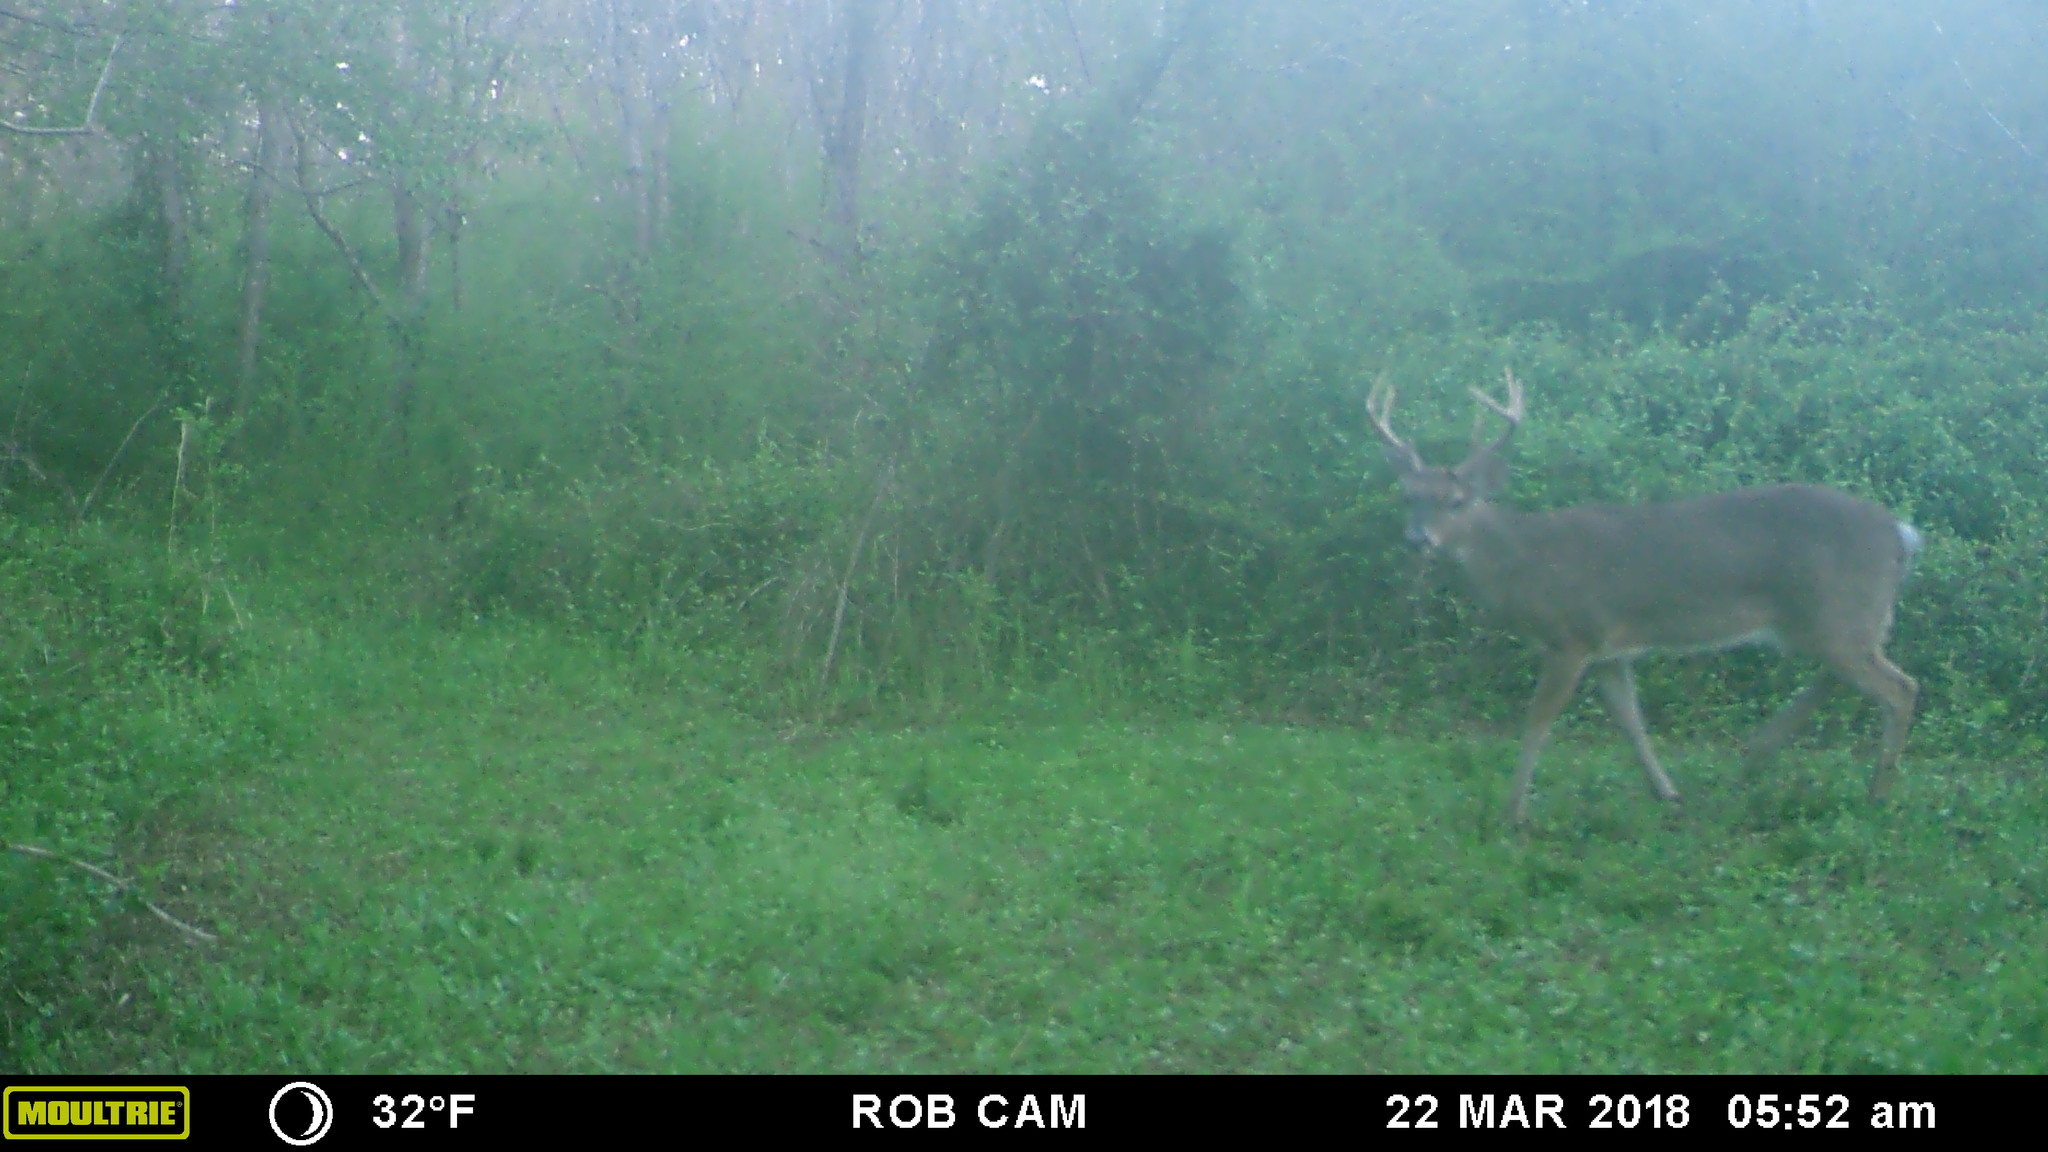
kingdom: Animalia
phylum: Chordata
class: Mammalia
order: Artiodactyla
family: Cervidae
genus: Odocoileus
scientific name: Odocoileus virginianus
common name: White-tailed deer
